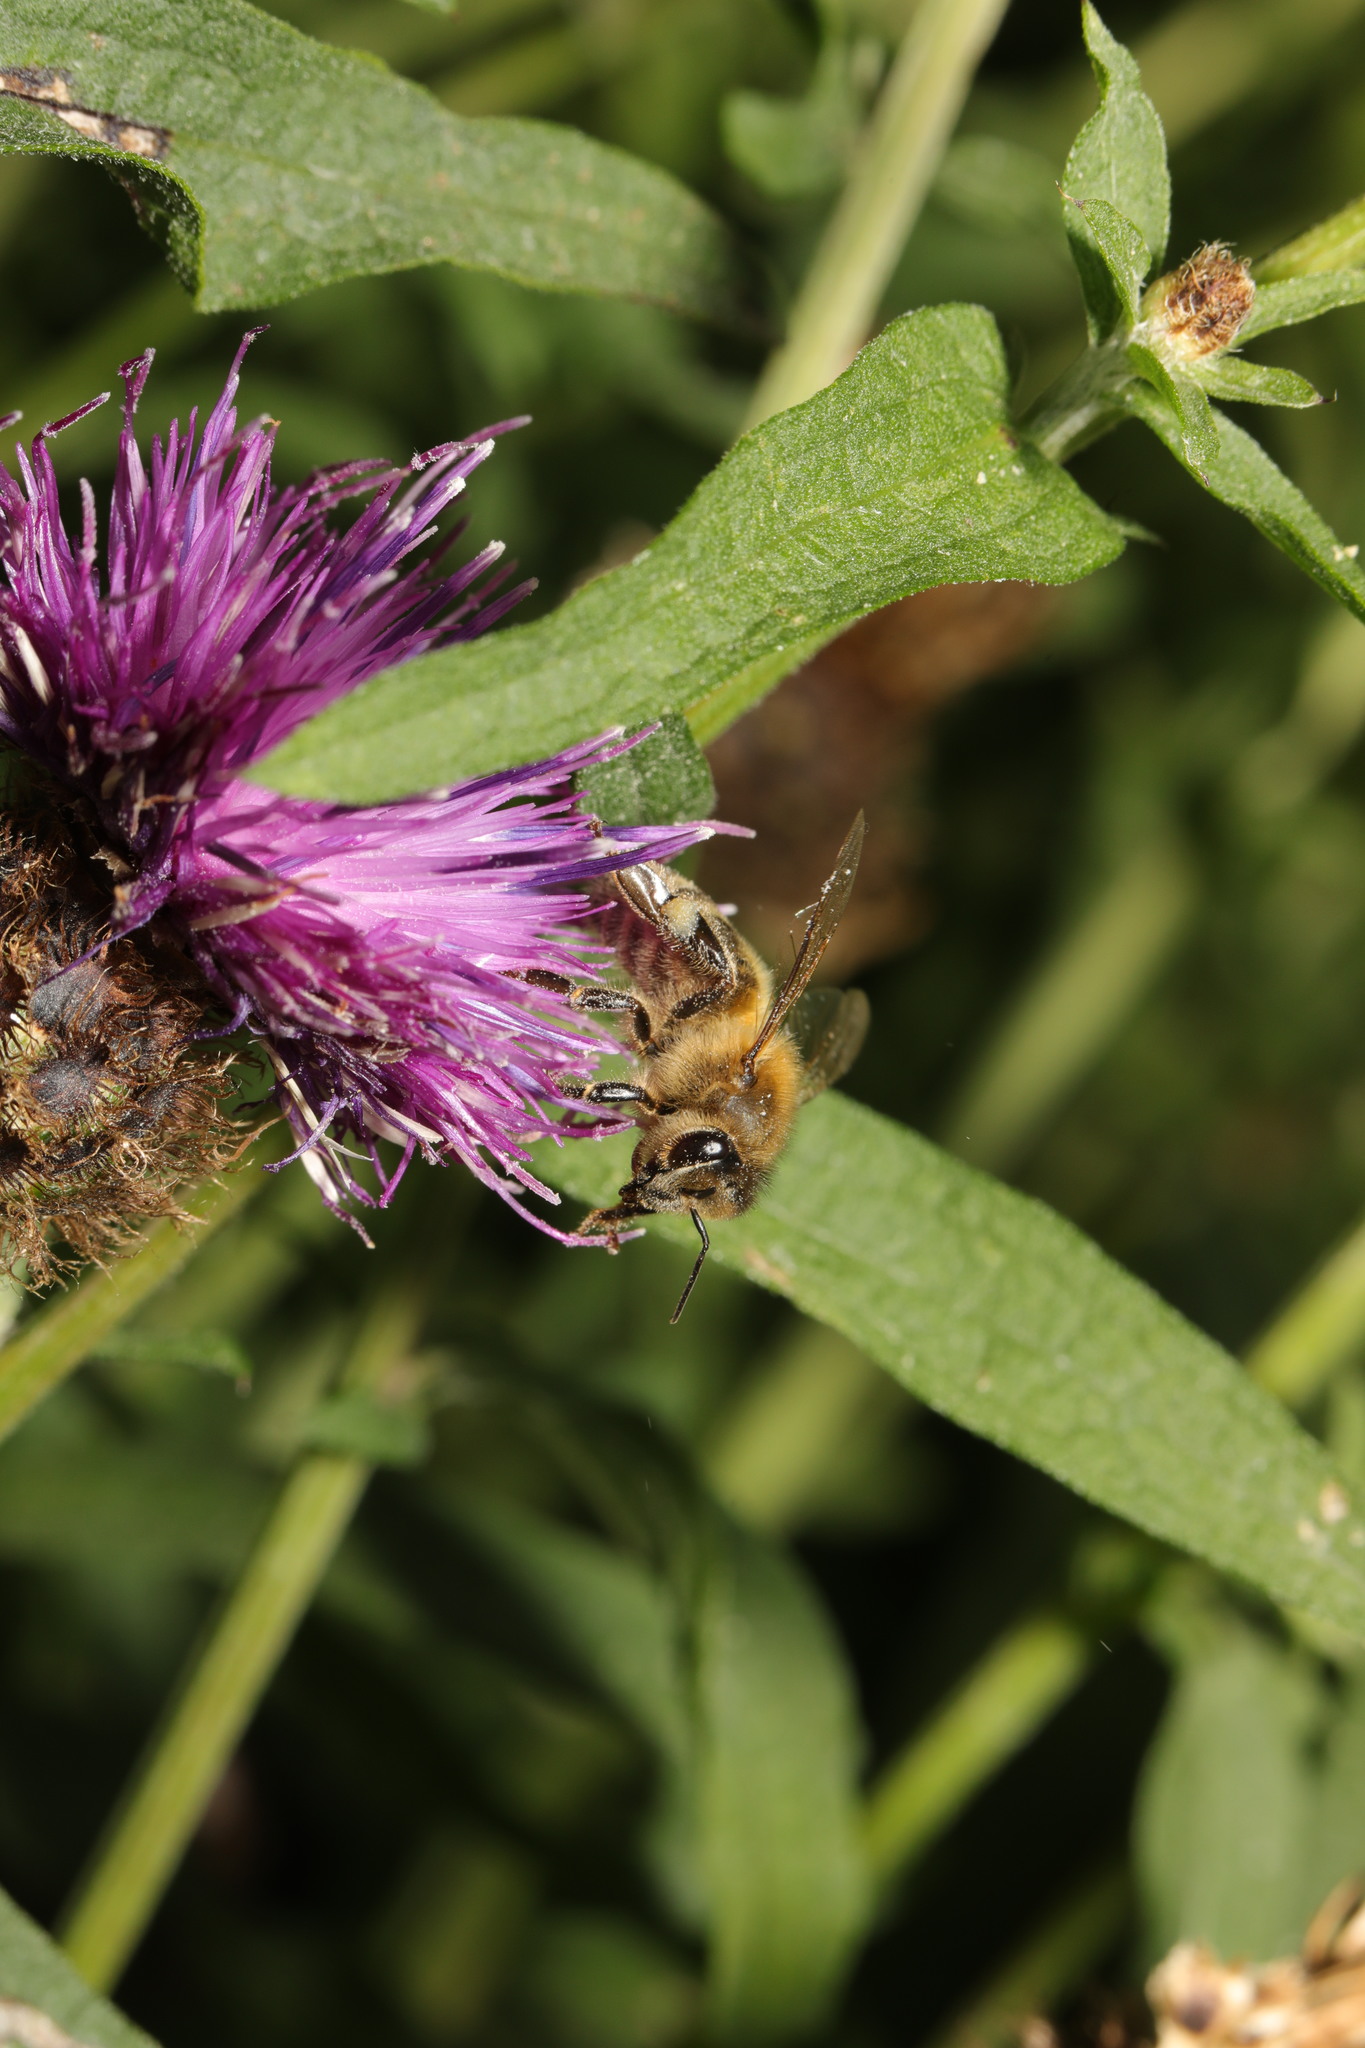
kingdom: Animalia
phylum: Arthropoda
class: Insecta
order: Hymenoptera
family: Apidae
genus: Apis
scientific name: Apis mellifera
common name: Honey bee
